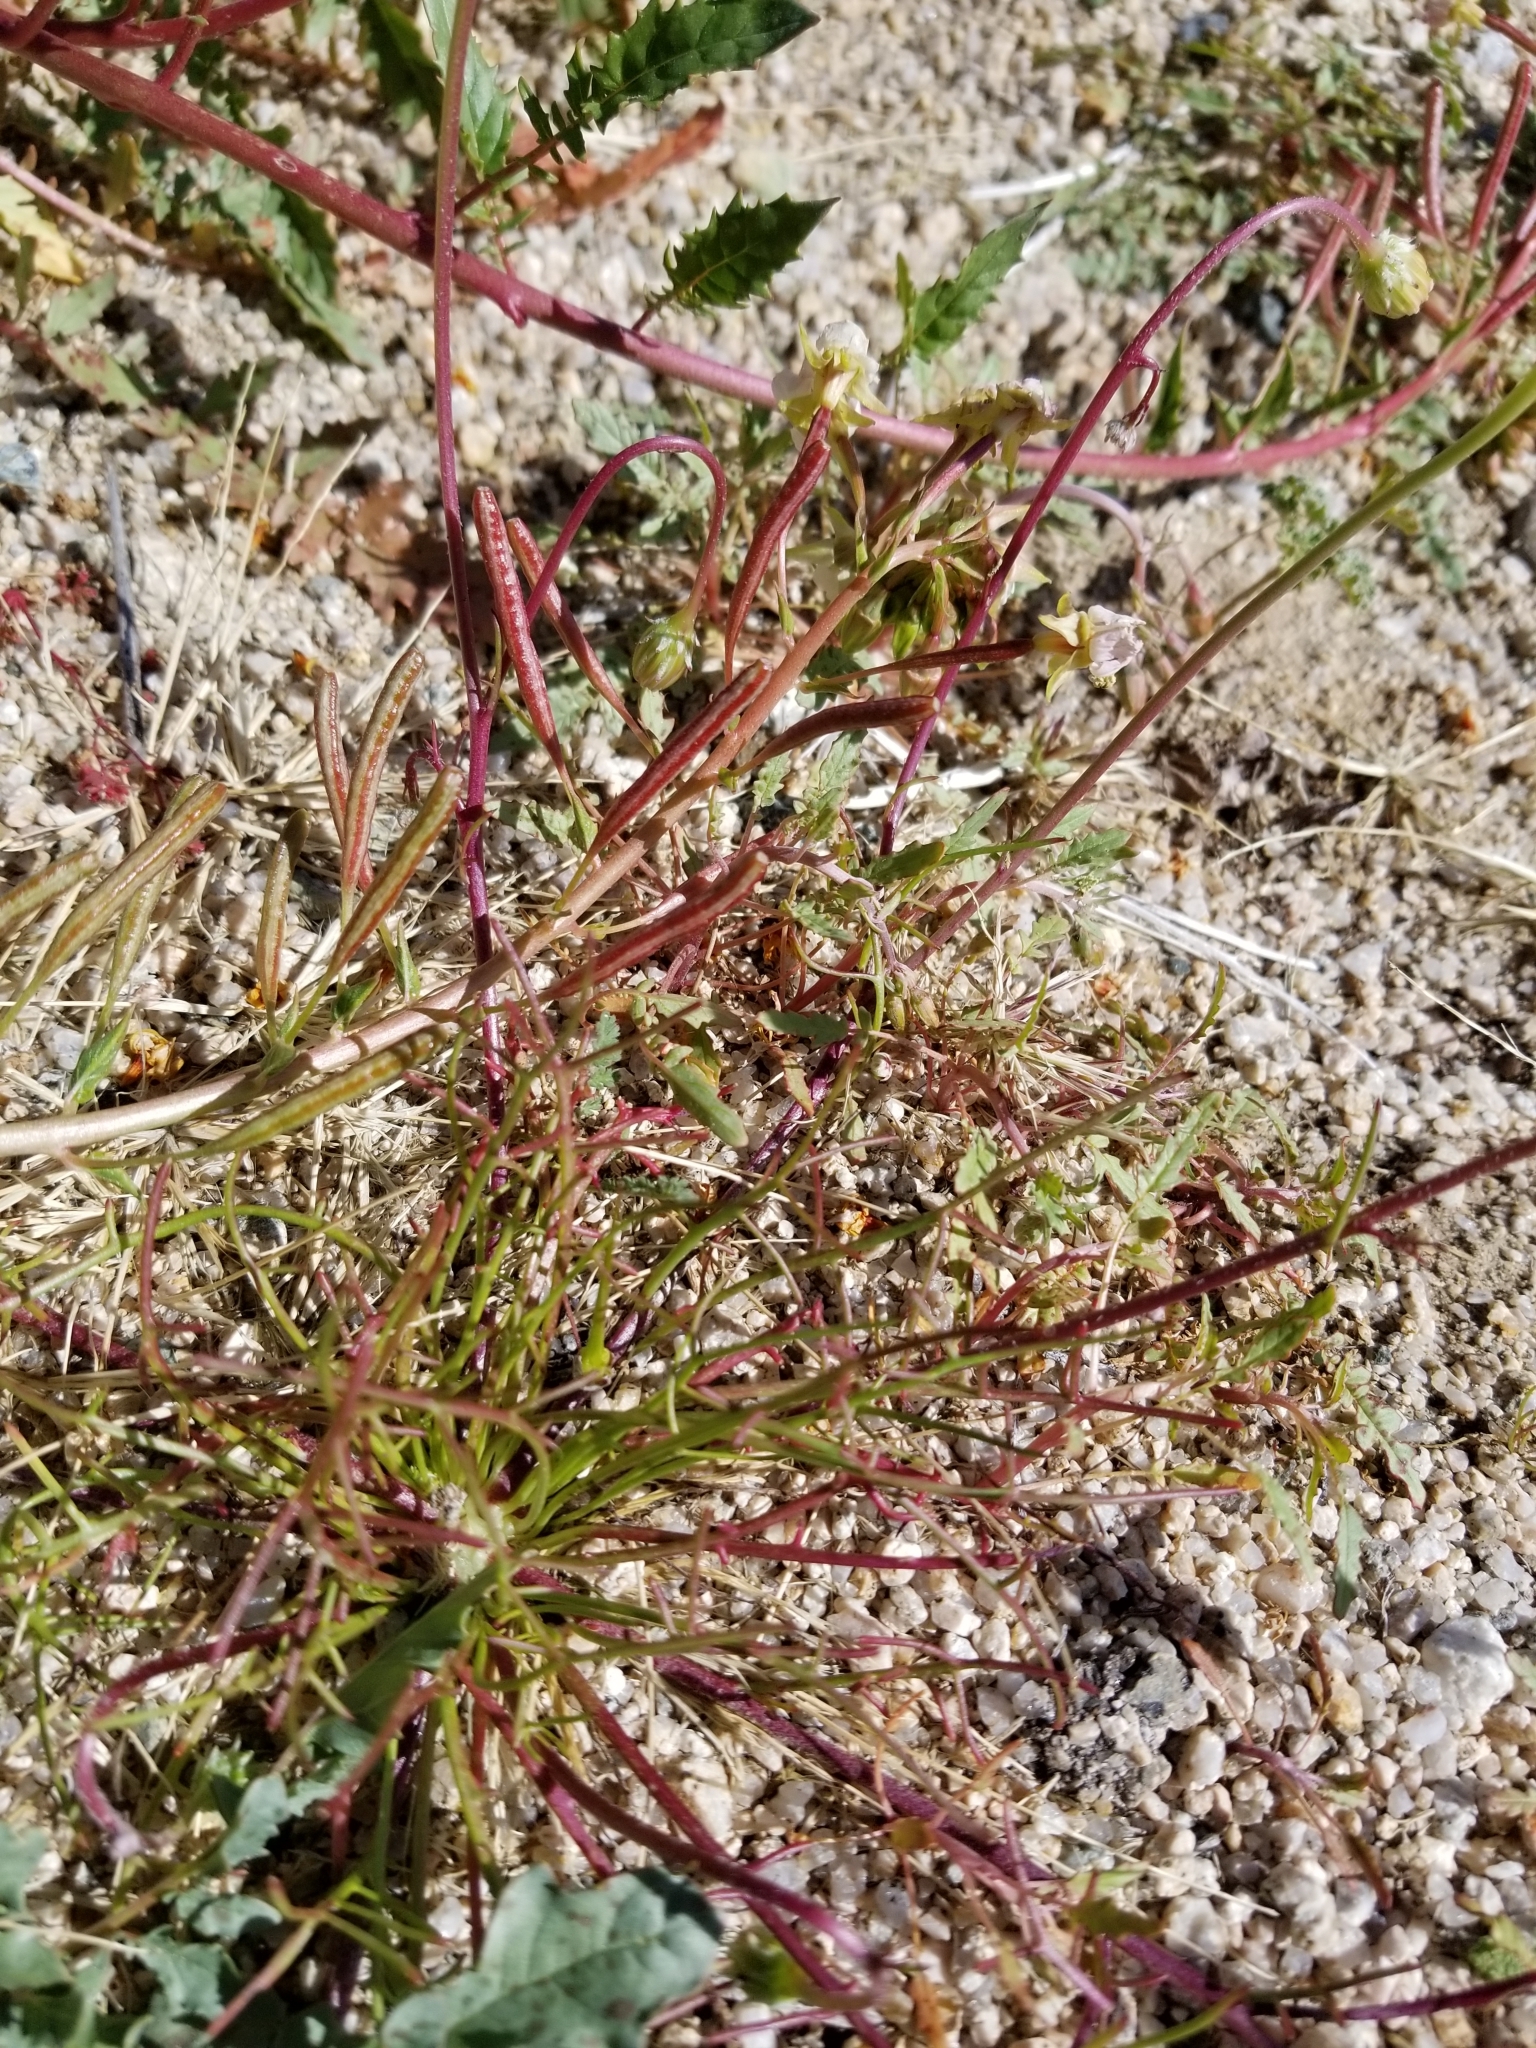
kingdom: Plantae
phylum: Tracheophyta
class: Magnoliopsida
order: Asterales
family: Asteraceae
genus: Malacothrix
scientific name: Malacothrix glabrata
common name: Smooth desert-dandelion
